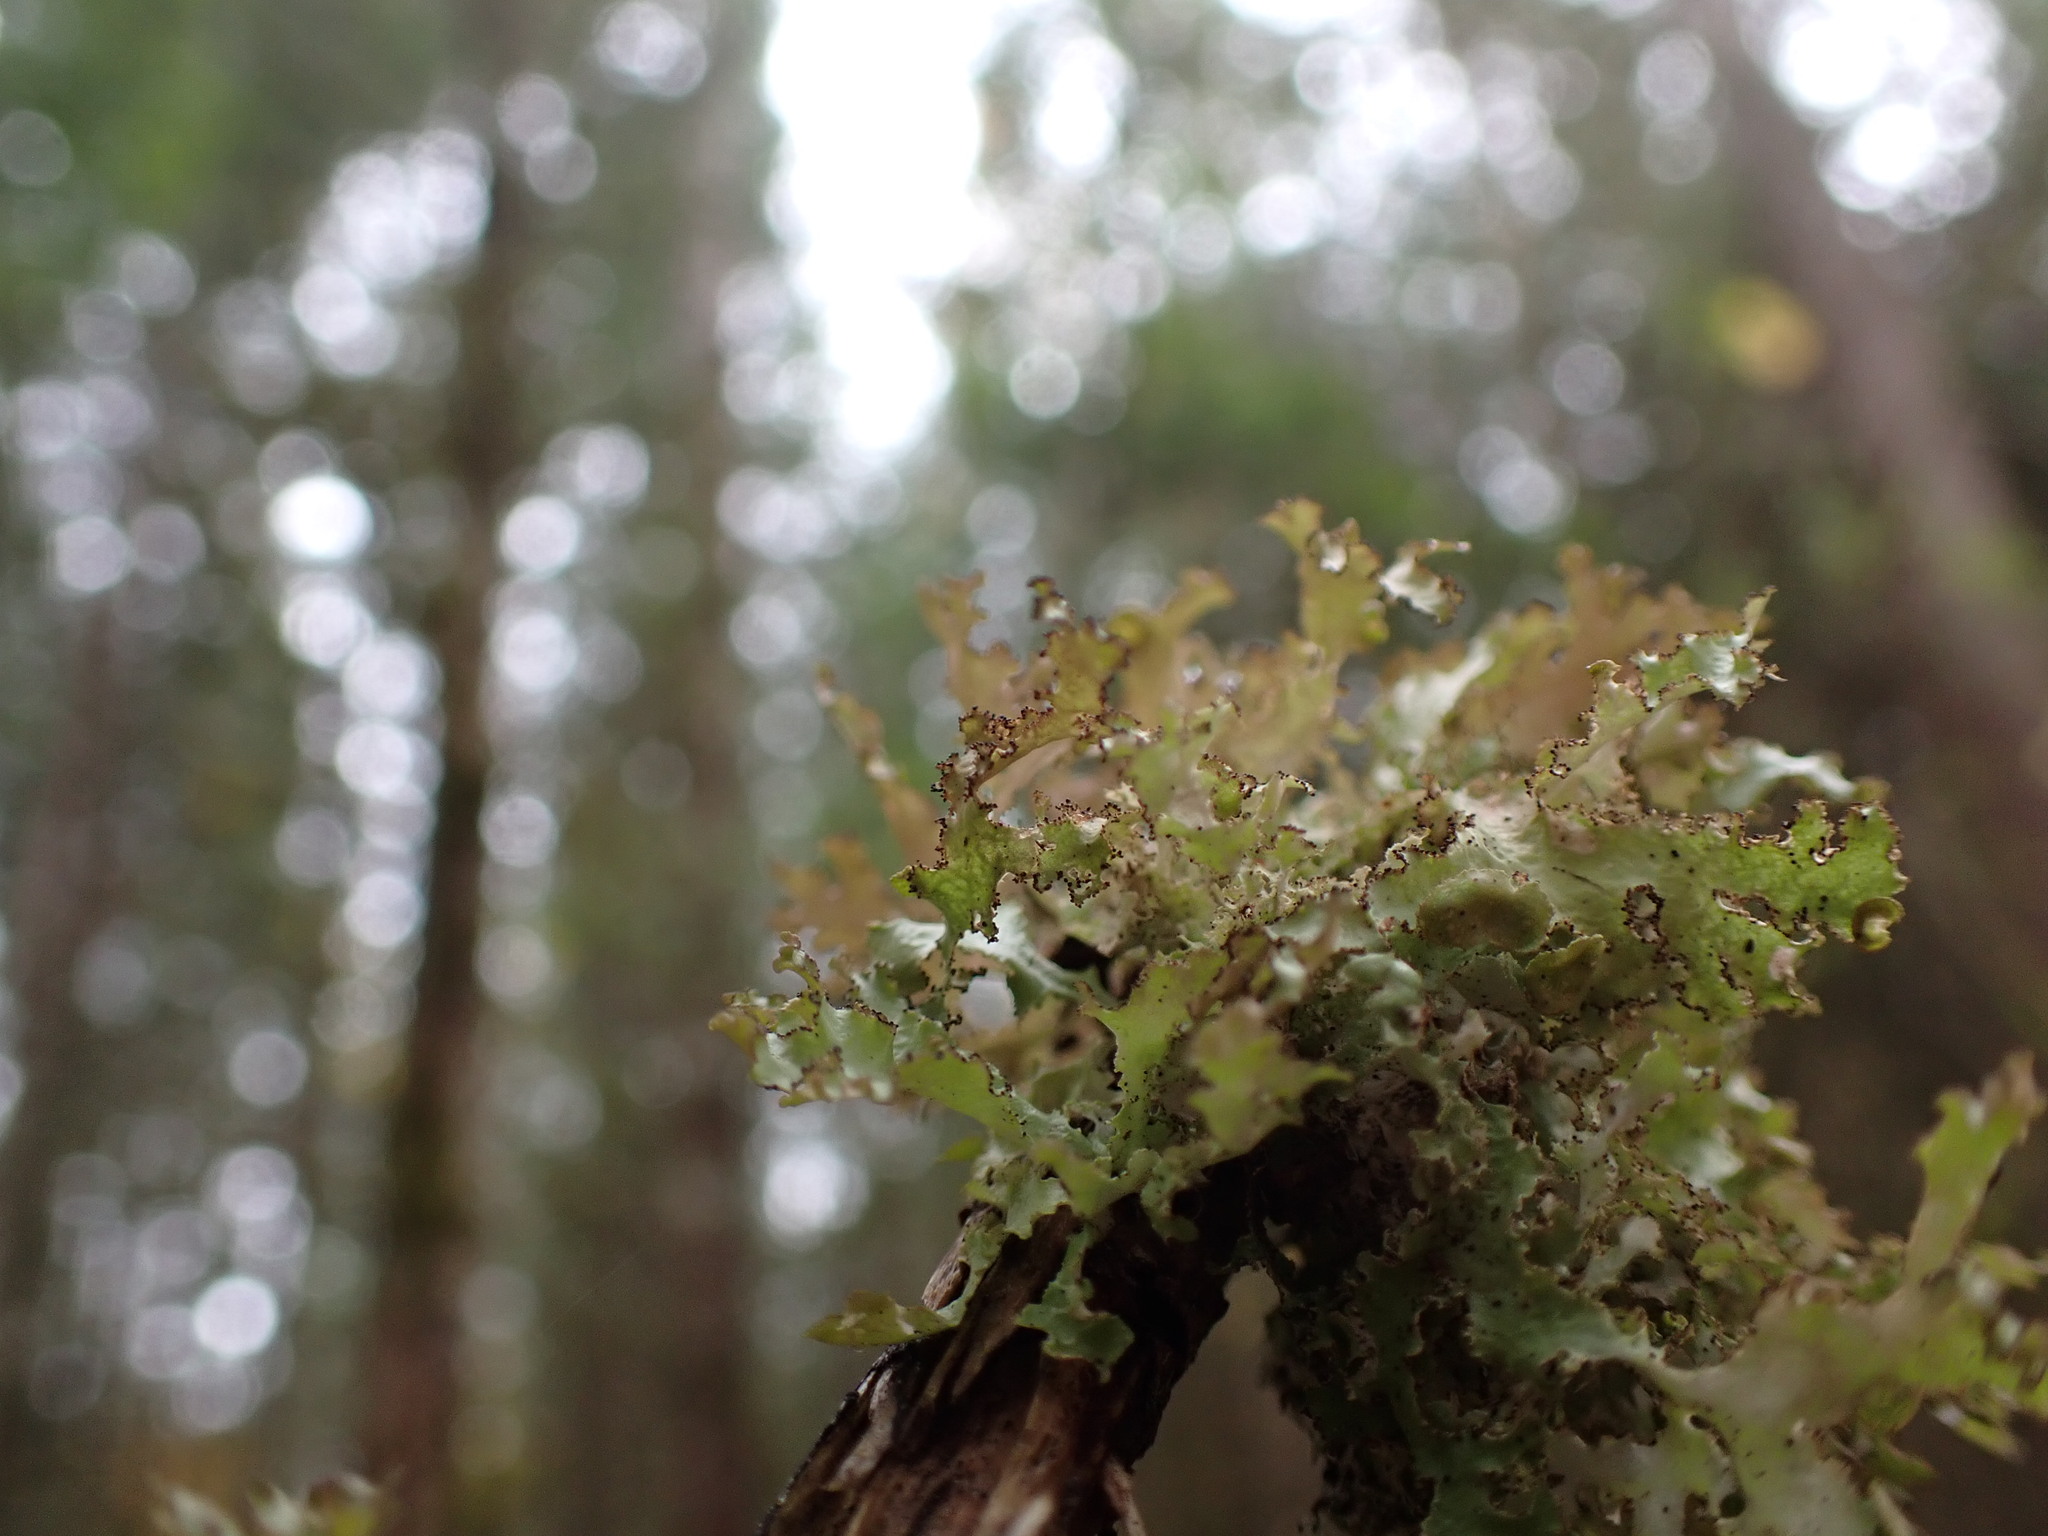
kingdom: Fungi
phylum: Ascomycota
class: Lecanoromycetes
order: Lecanorales
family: Parmeliaceae
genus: Platismatia
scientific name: Platismatia herrei
